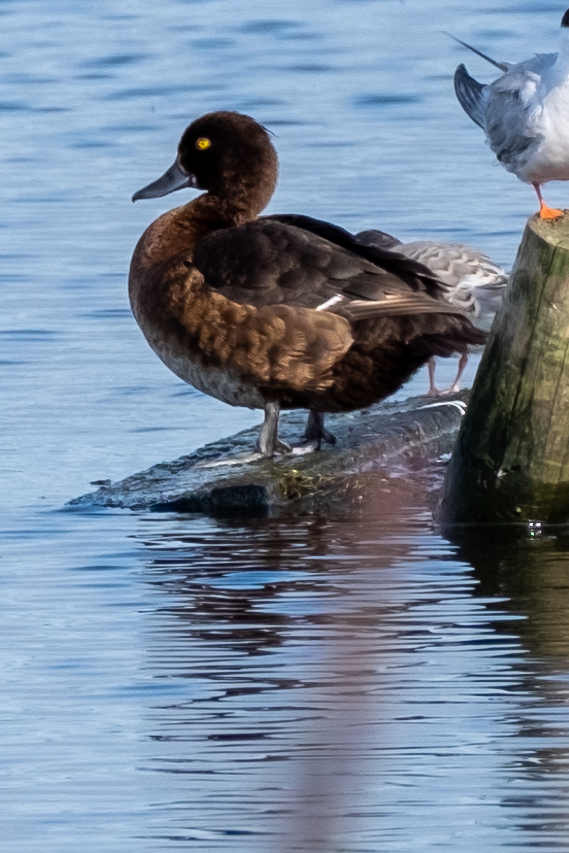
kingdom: Animalia
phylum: Chordata
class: Aves
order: Anseriformes
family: Anatidae
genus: Aythya
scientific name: Aythya fuligula
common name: Tufted duck
